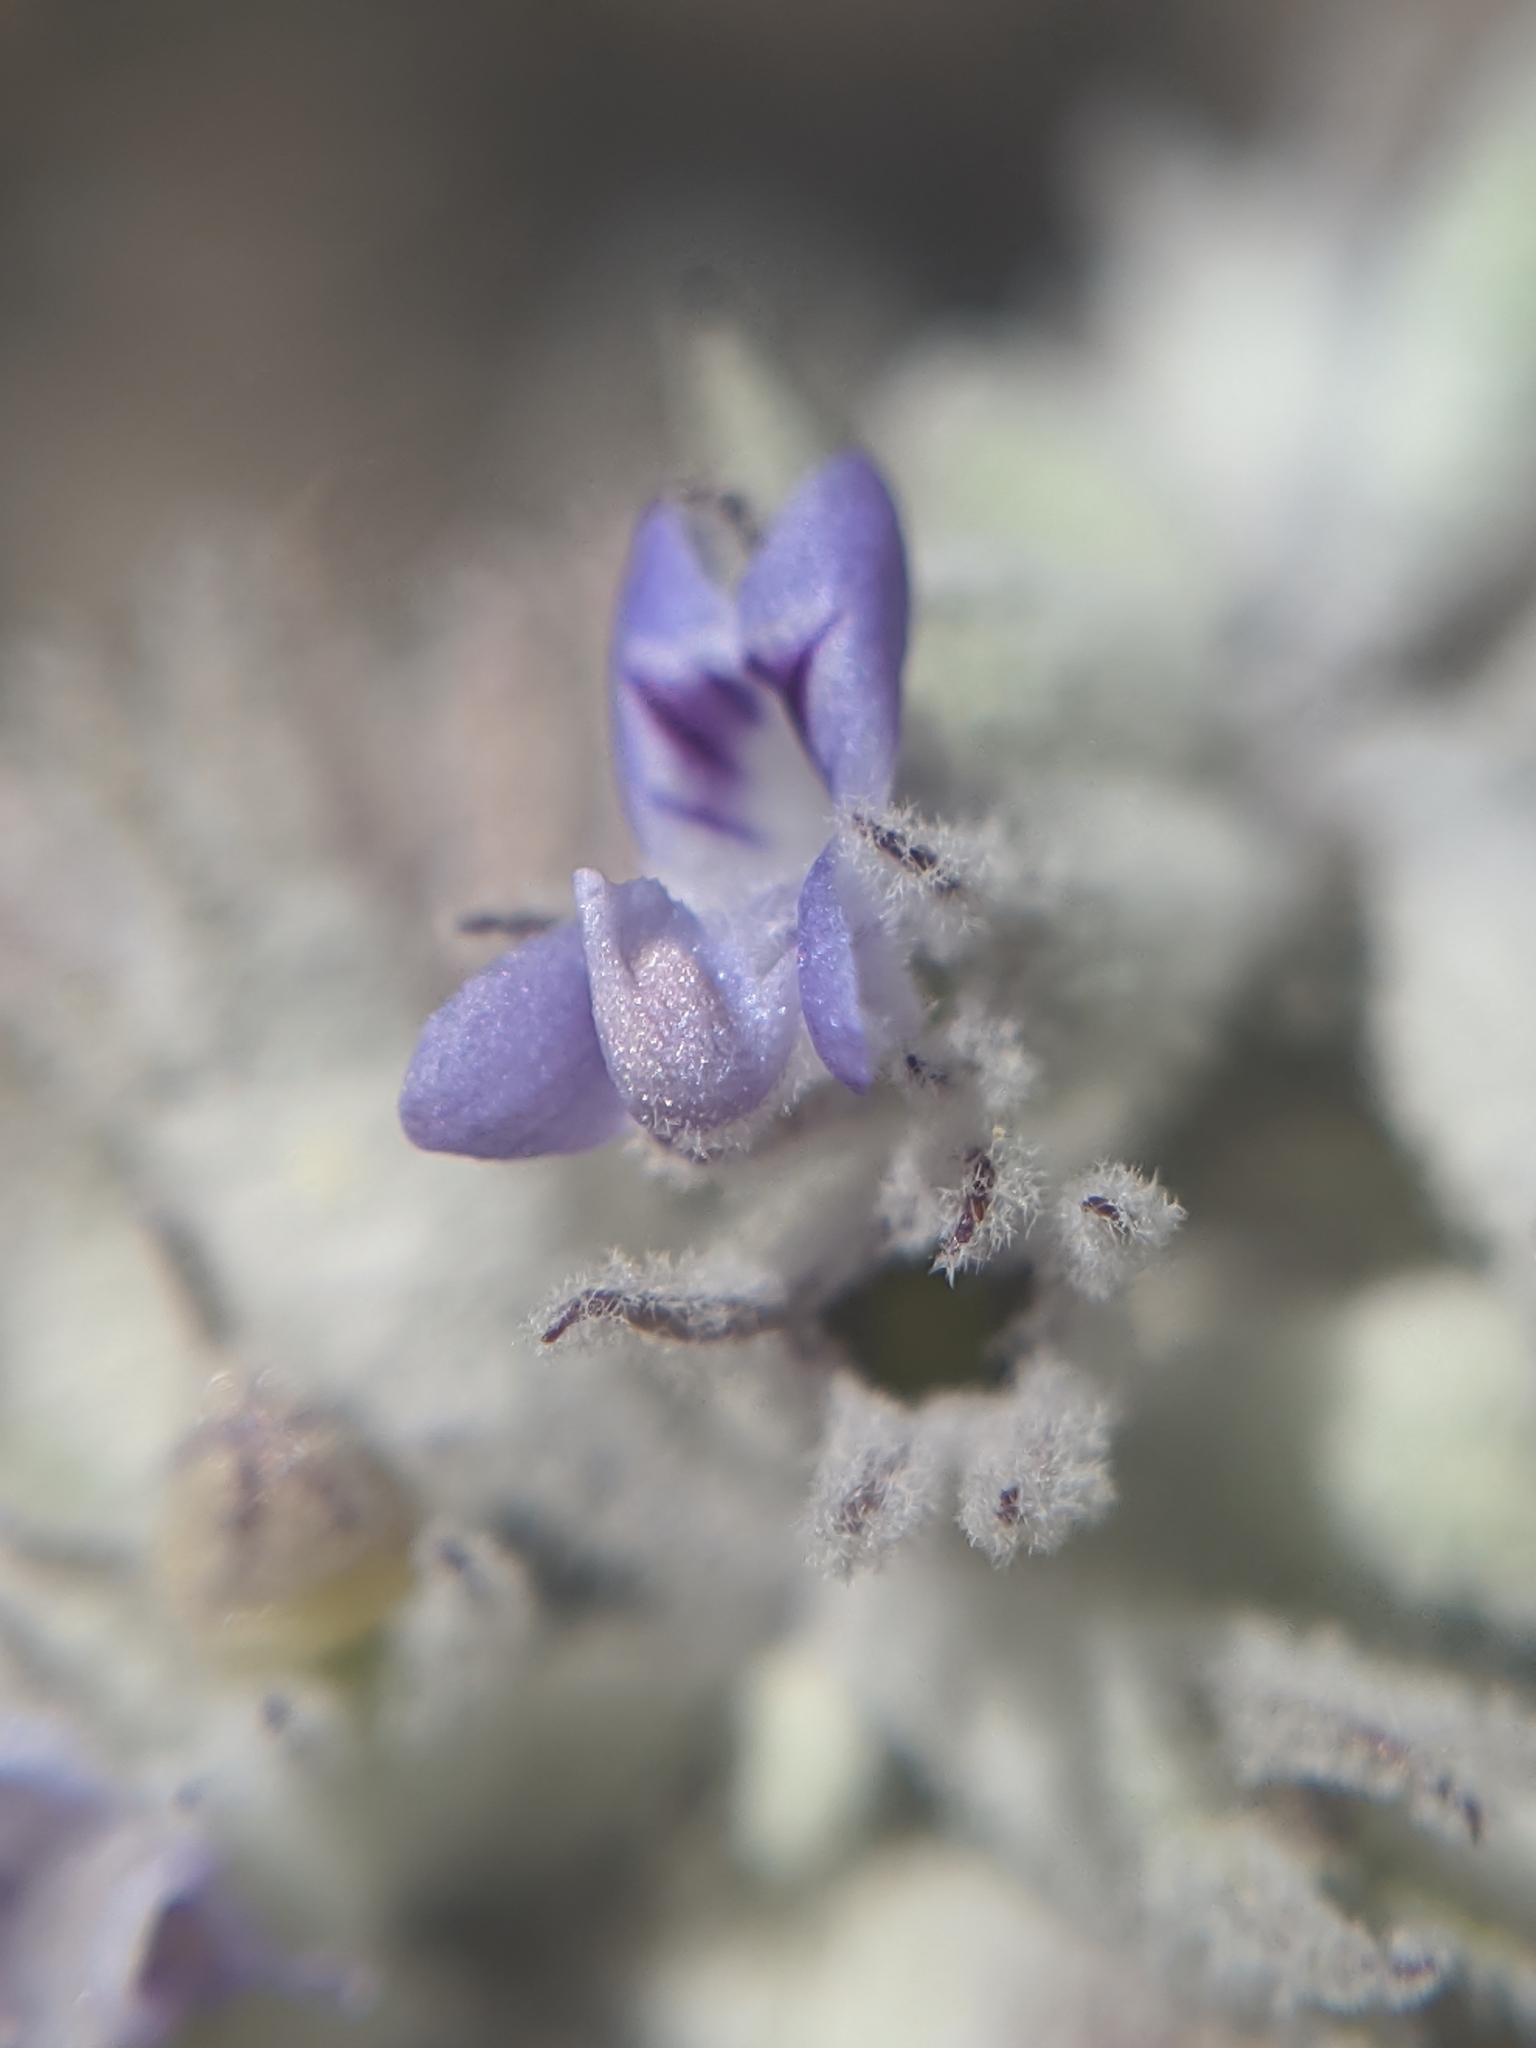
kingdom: Plantae
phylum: Tracheophyta
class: Magnoliopsida
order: Lamiales
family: Lamiaceae
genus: Condea
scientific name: Condea emoryi
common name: Chia
